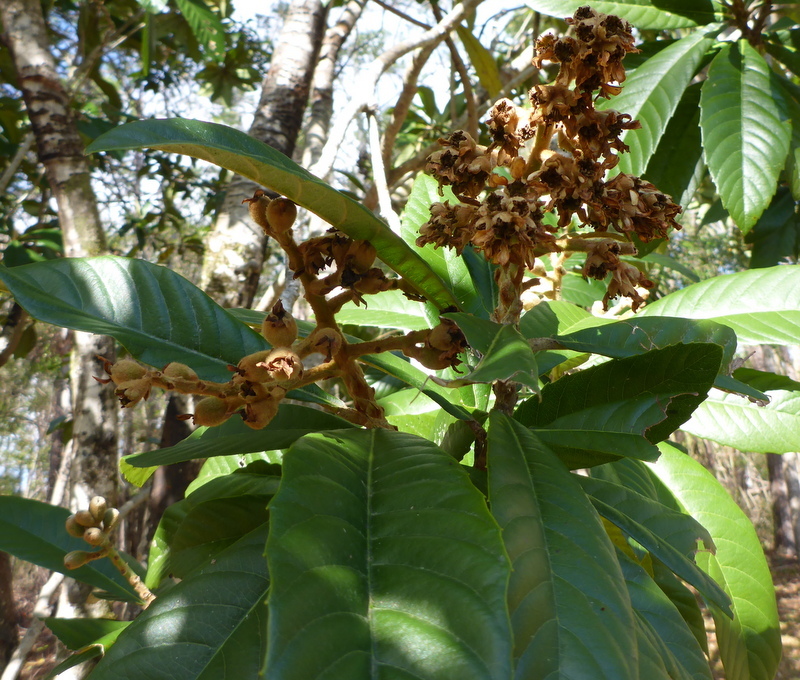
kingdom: Plantae
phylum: Tracheophyta
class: Magnoliopsida
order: Rosales
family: Rosaceae
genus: Rhaphiolepis
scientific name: Rhaphiolepis bibas
